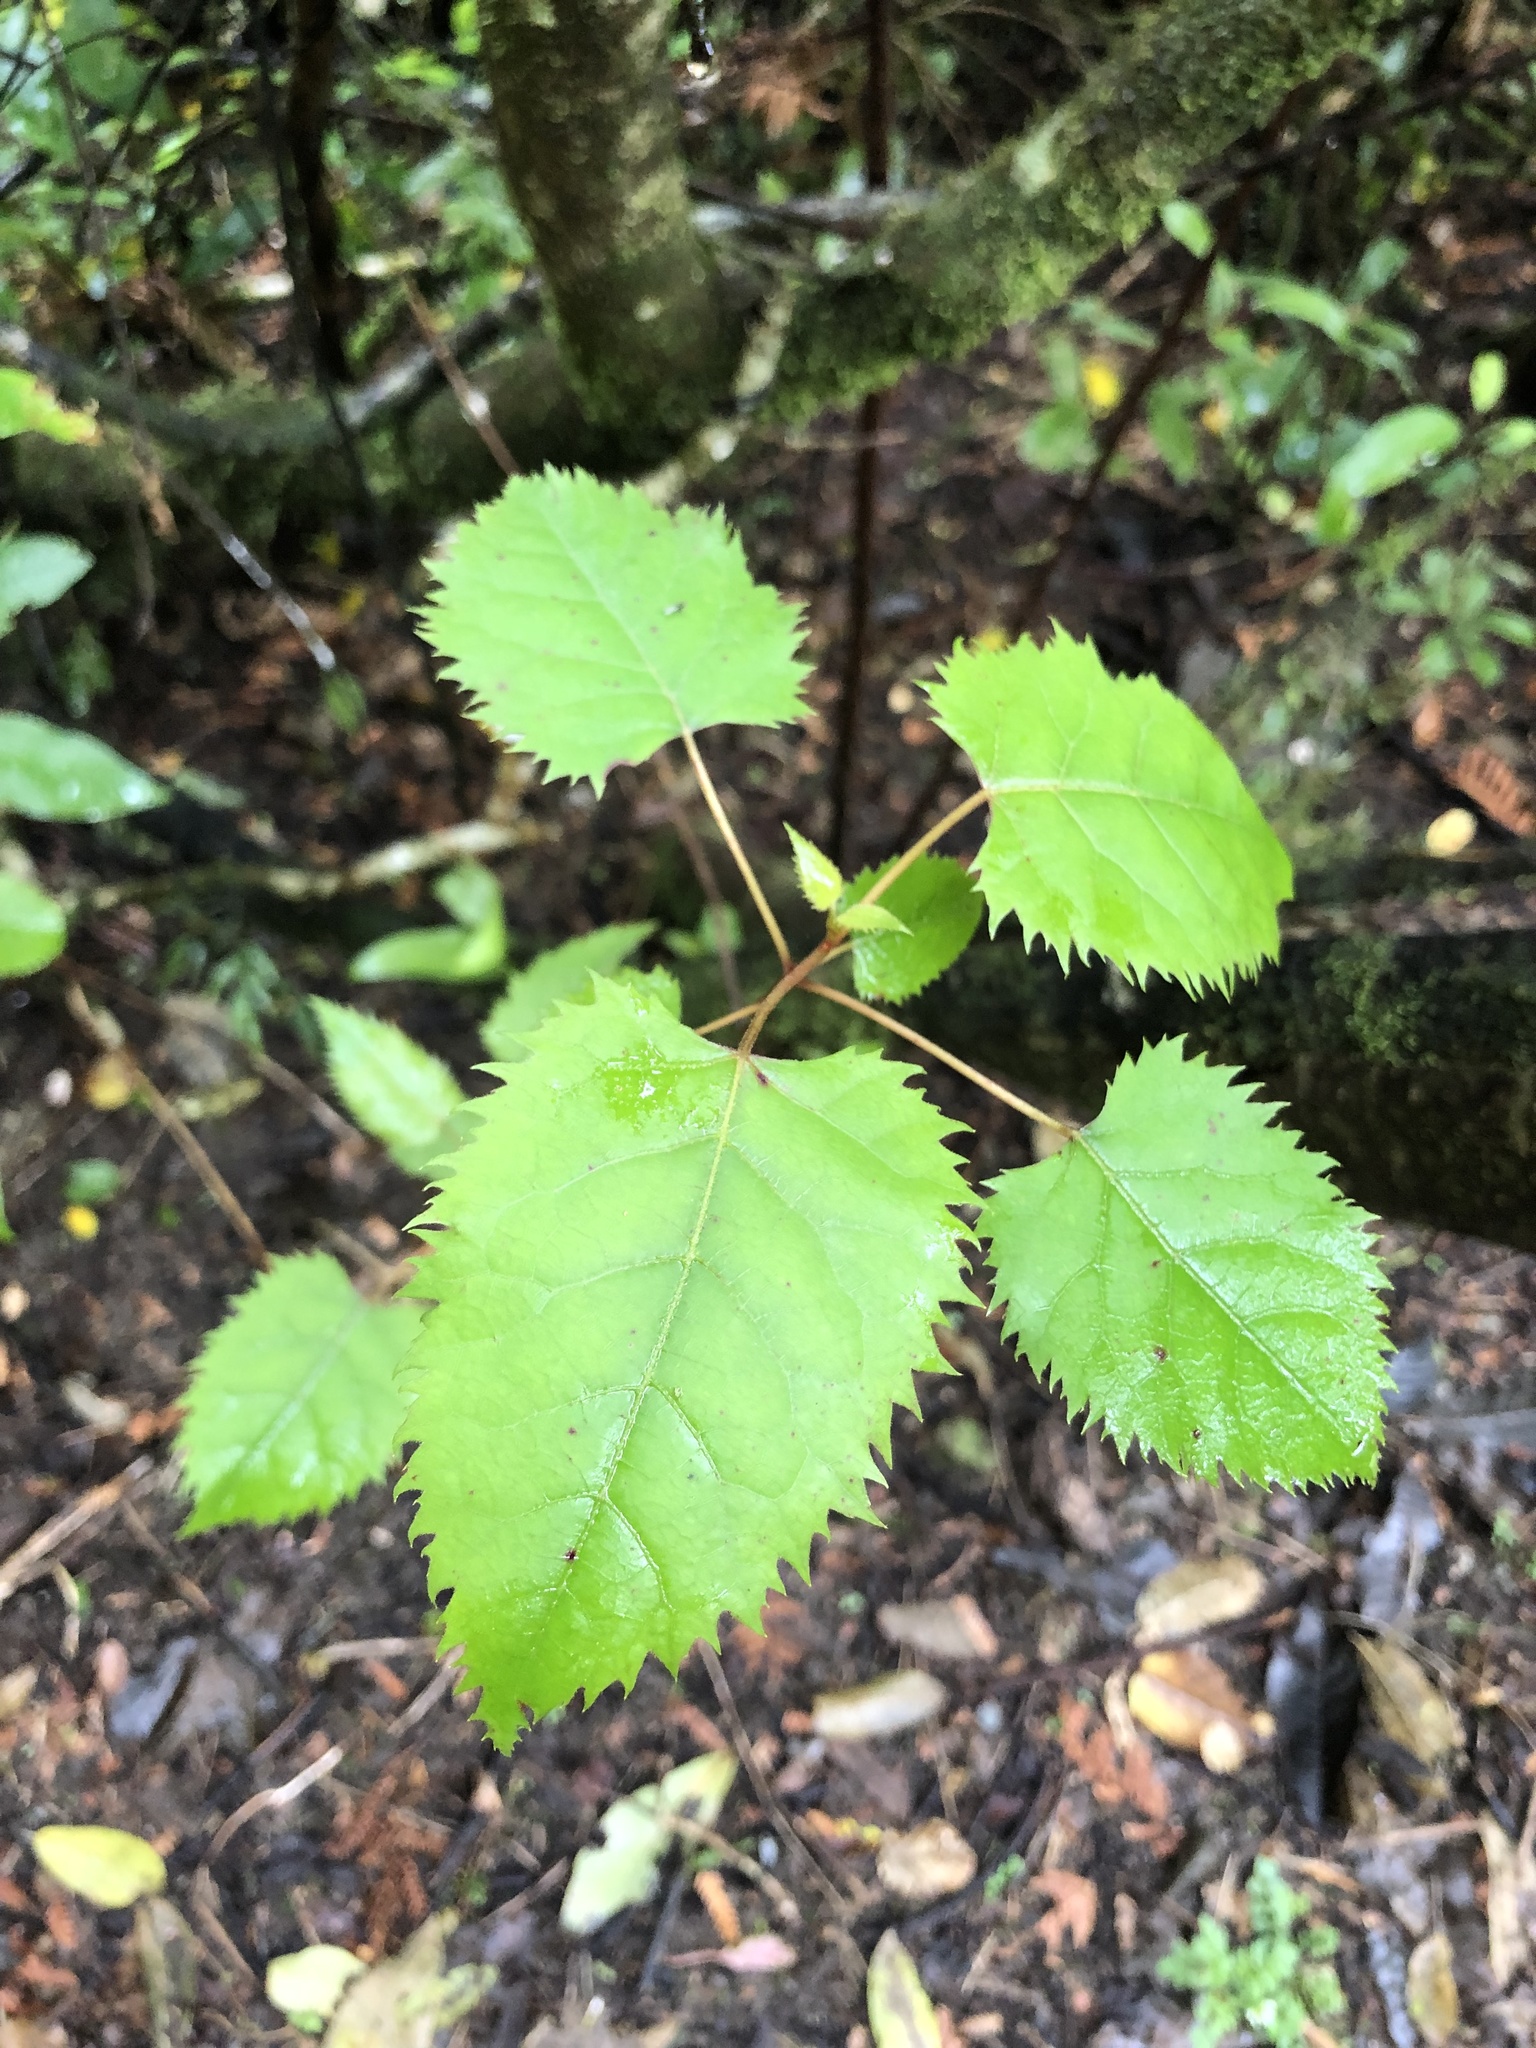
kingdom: Plantae
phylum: Tracheophyta
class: Magnoliopsida
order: Oxalidales
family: Elaeocarpaceae
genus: Aristotelia
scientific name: Aristotelia serrata
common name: New zealand wineberry
